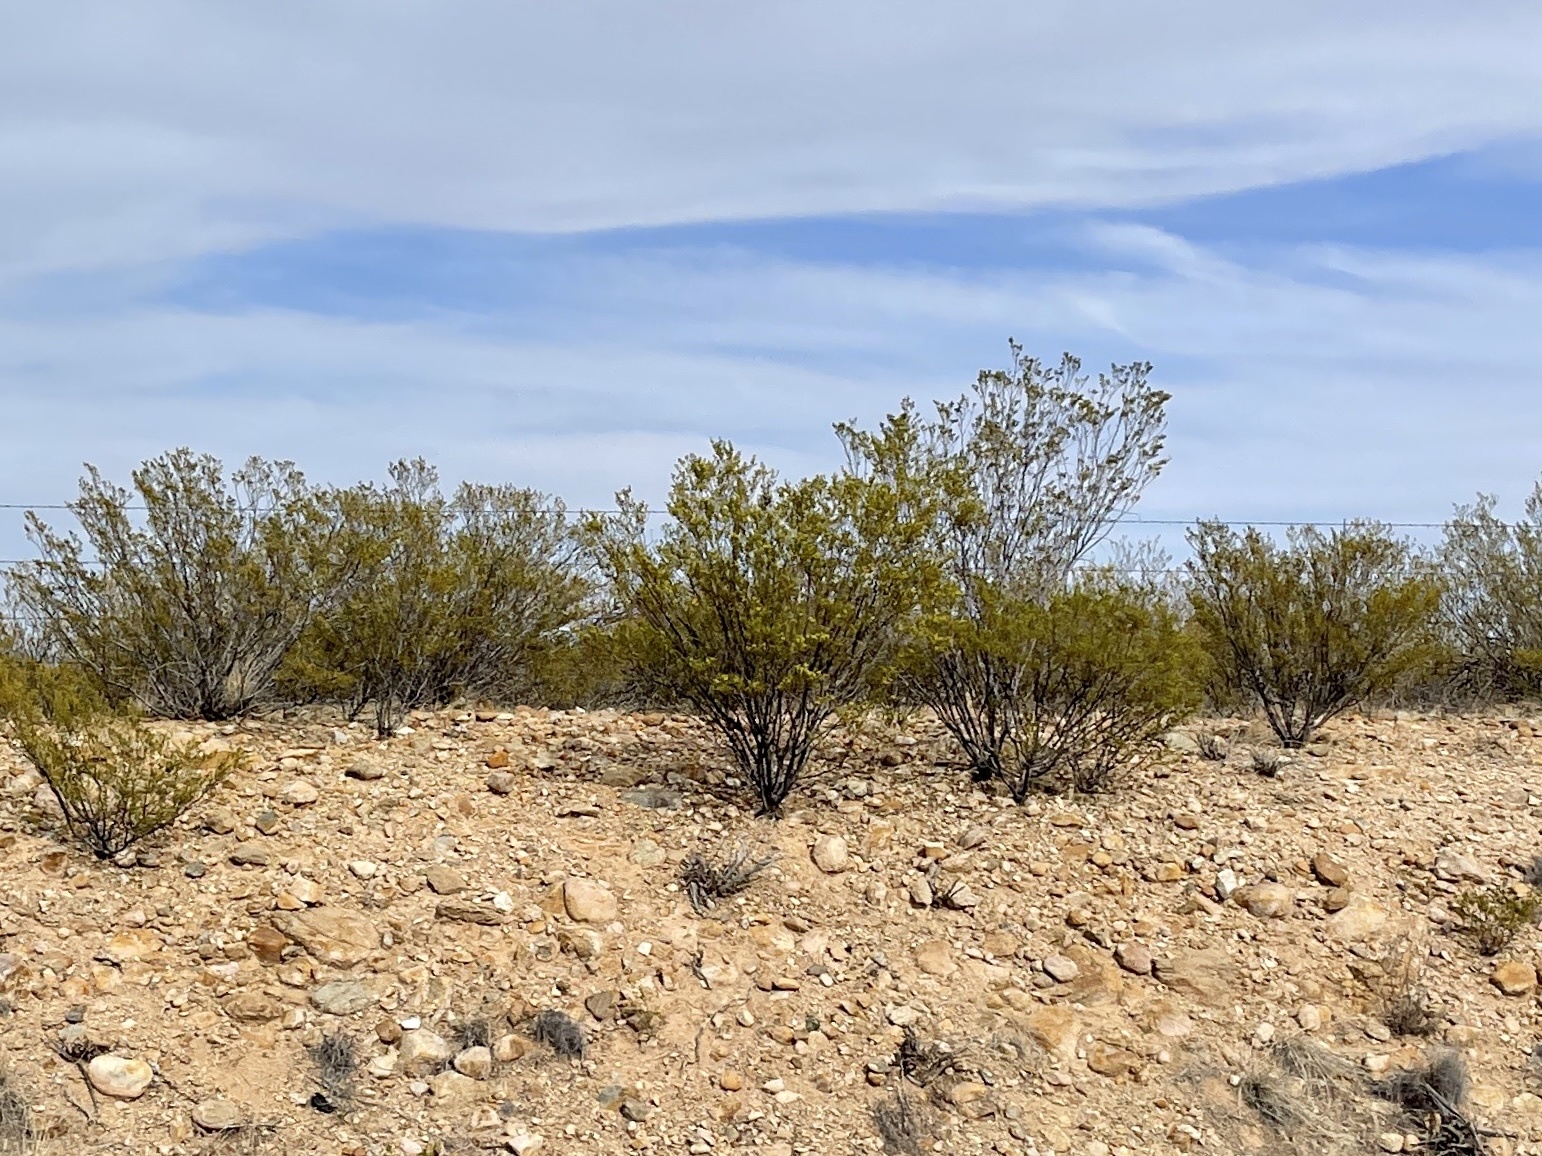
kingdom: Plantae
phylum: Tracheophyta
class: Magnoliopsida
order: Zygophyllales
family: Zygophyllaceae
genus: Larrea
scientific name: Larrea tridentata
